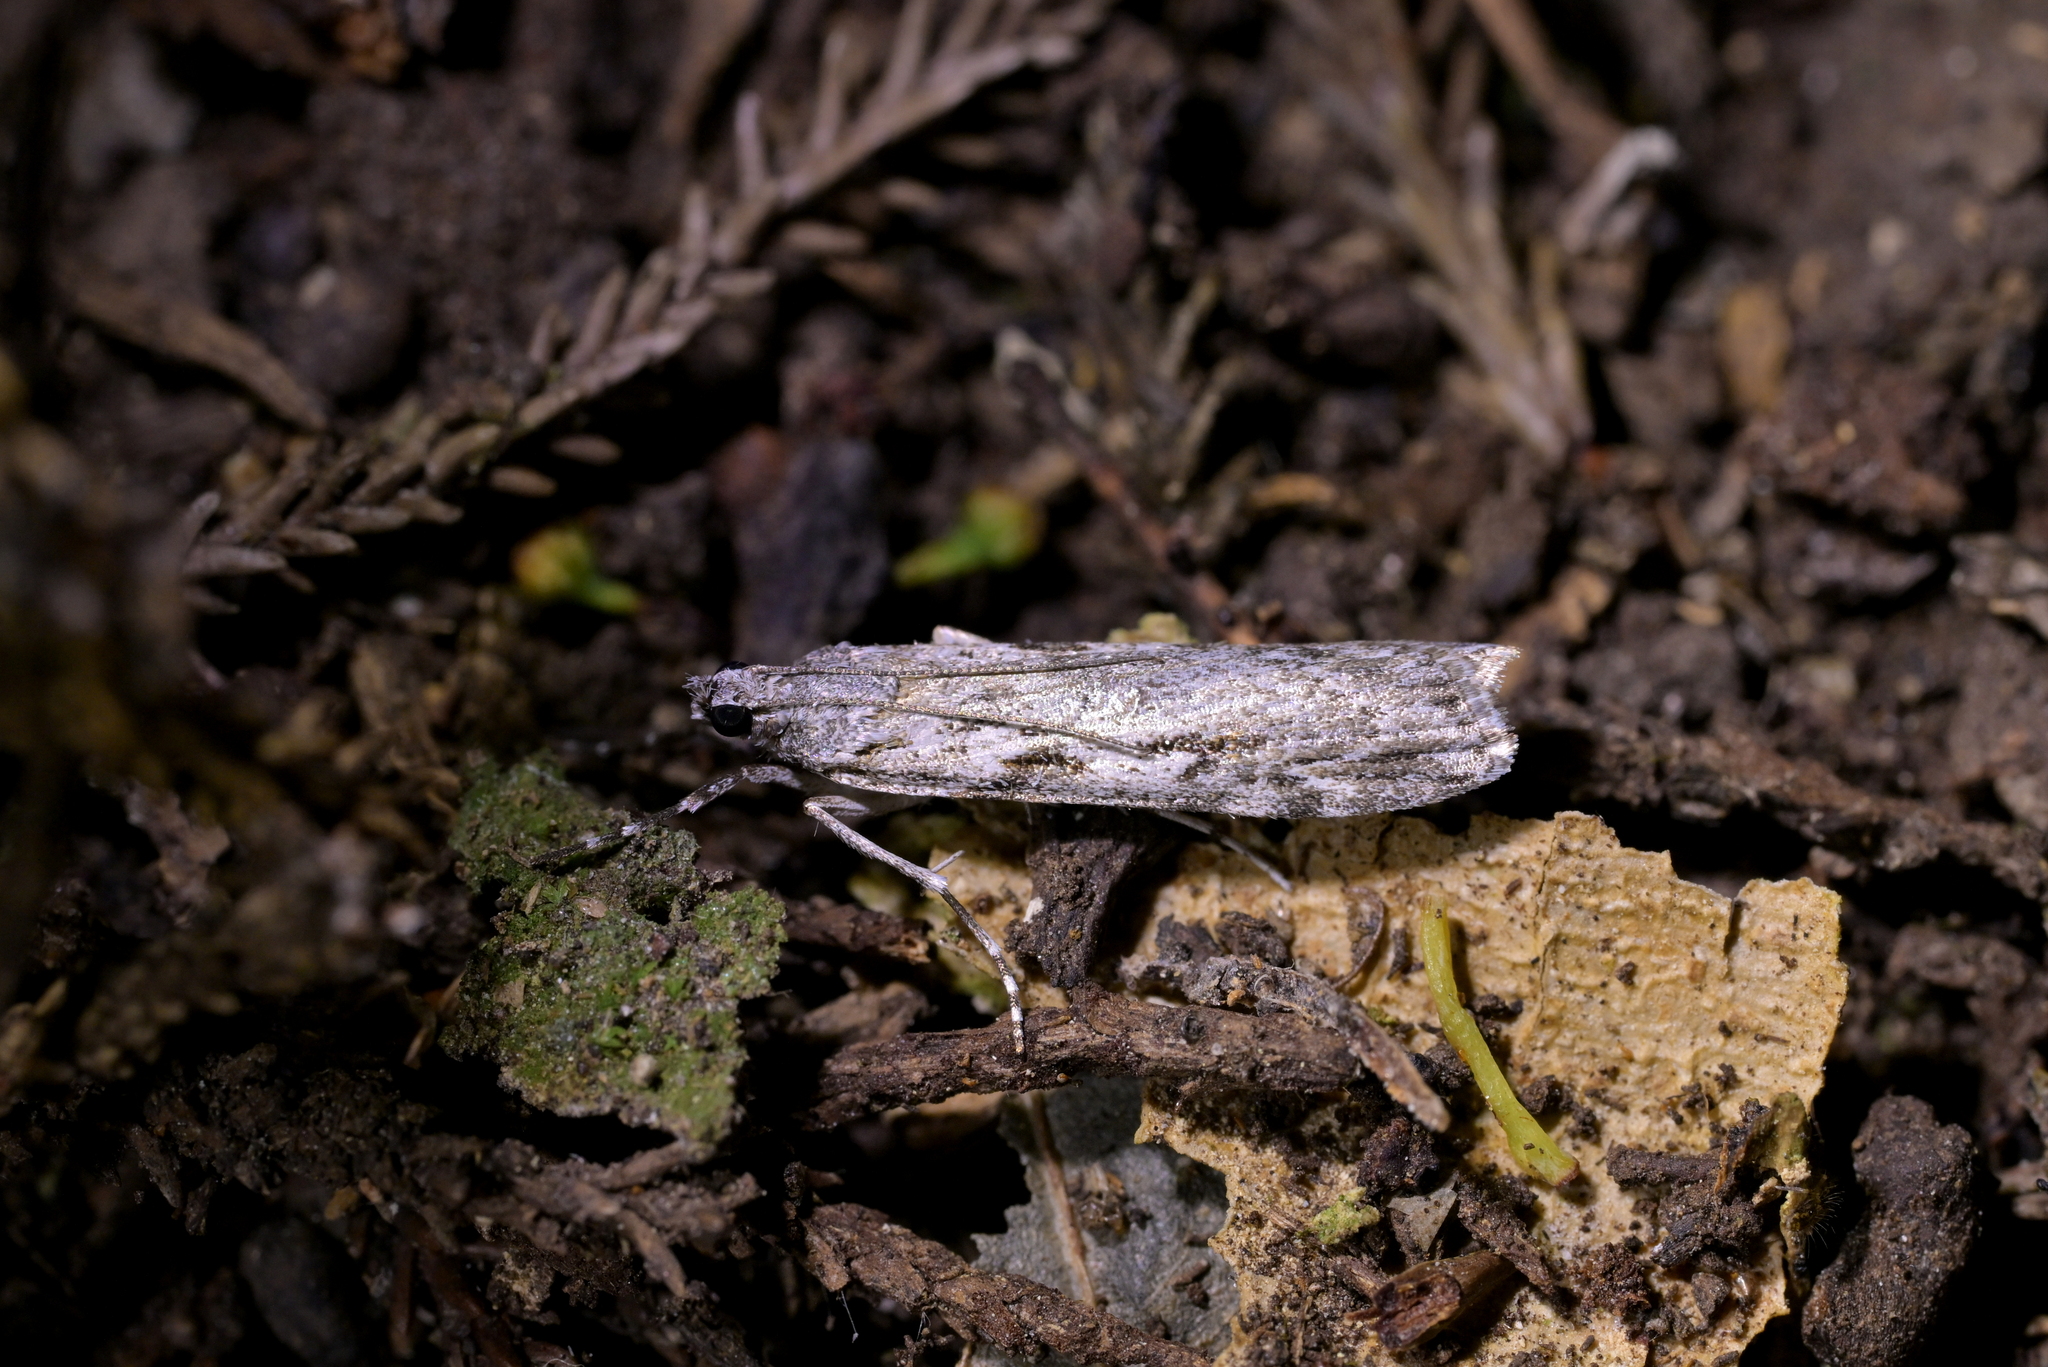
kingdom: Animalia
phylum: Arthropoda
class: Insecta
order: Lepidoptera
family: Crambidae
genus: Scoparia
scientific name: Scoparia halopis
